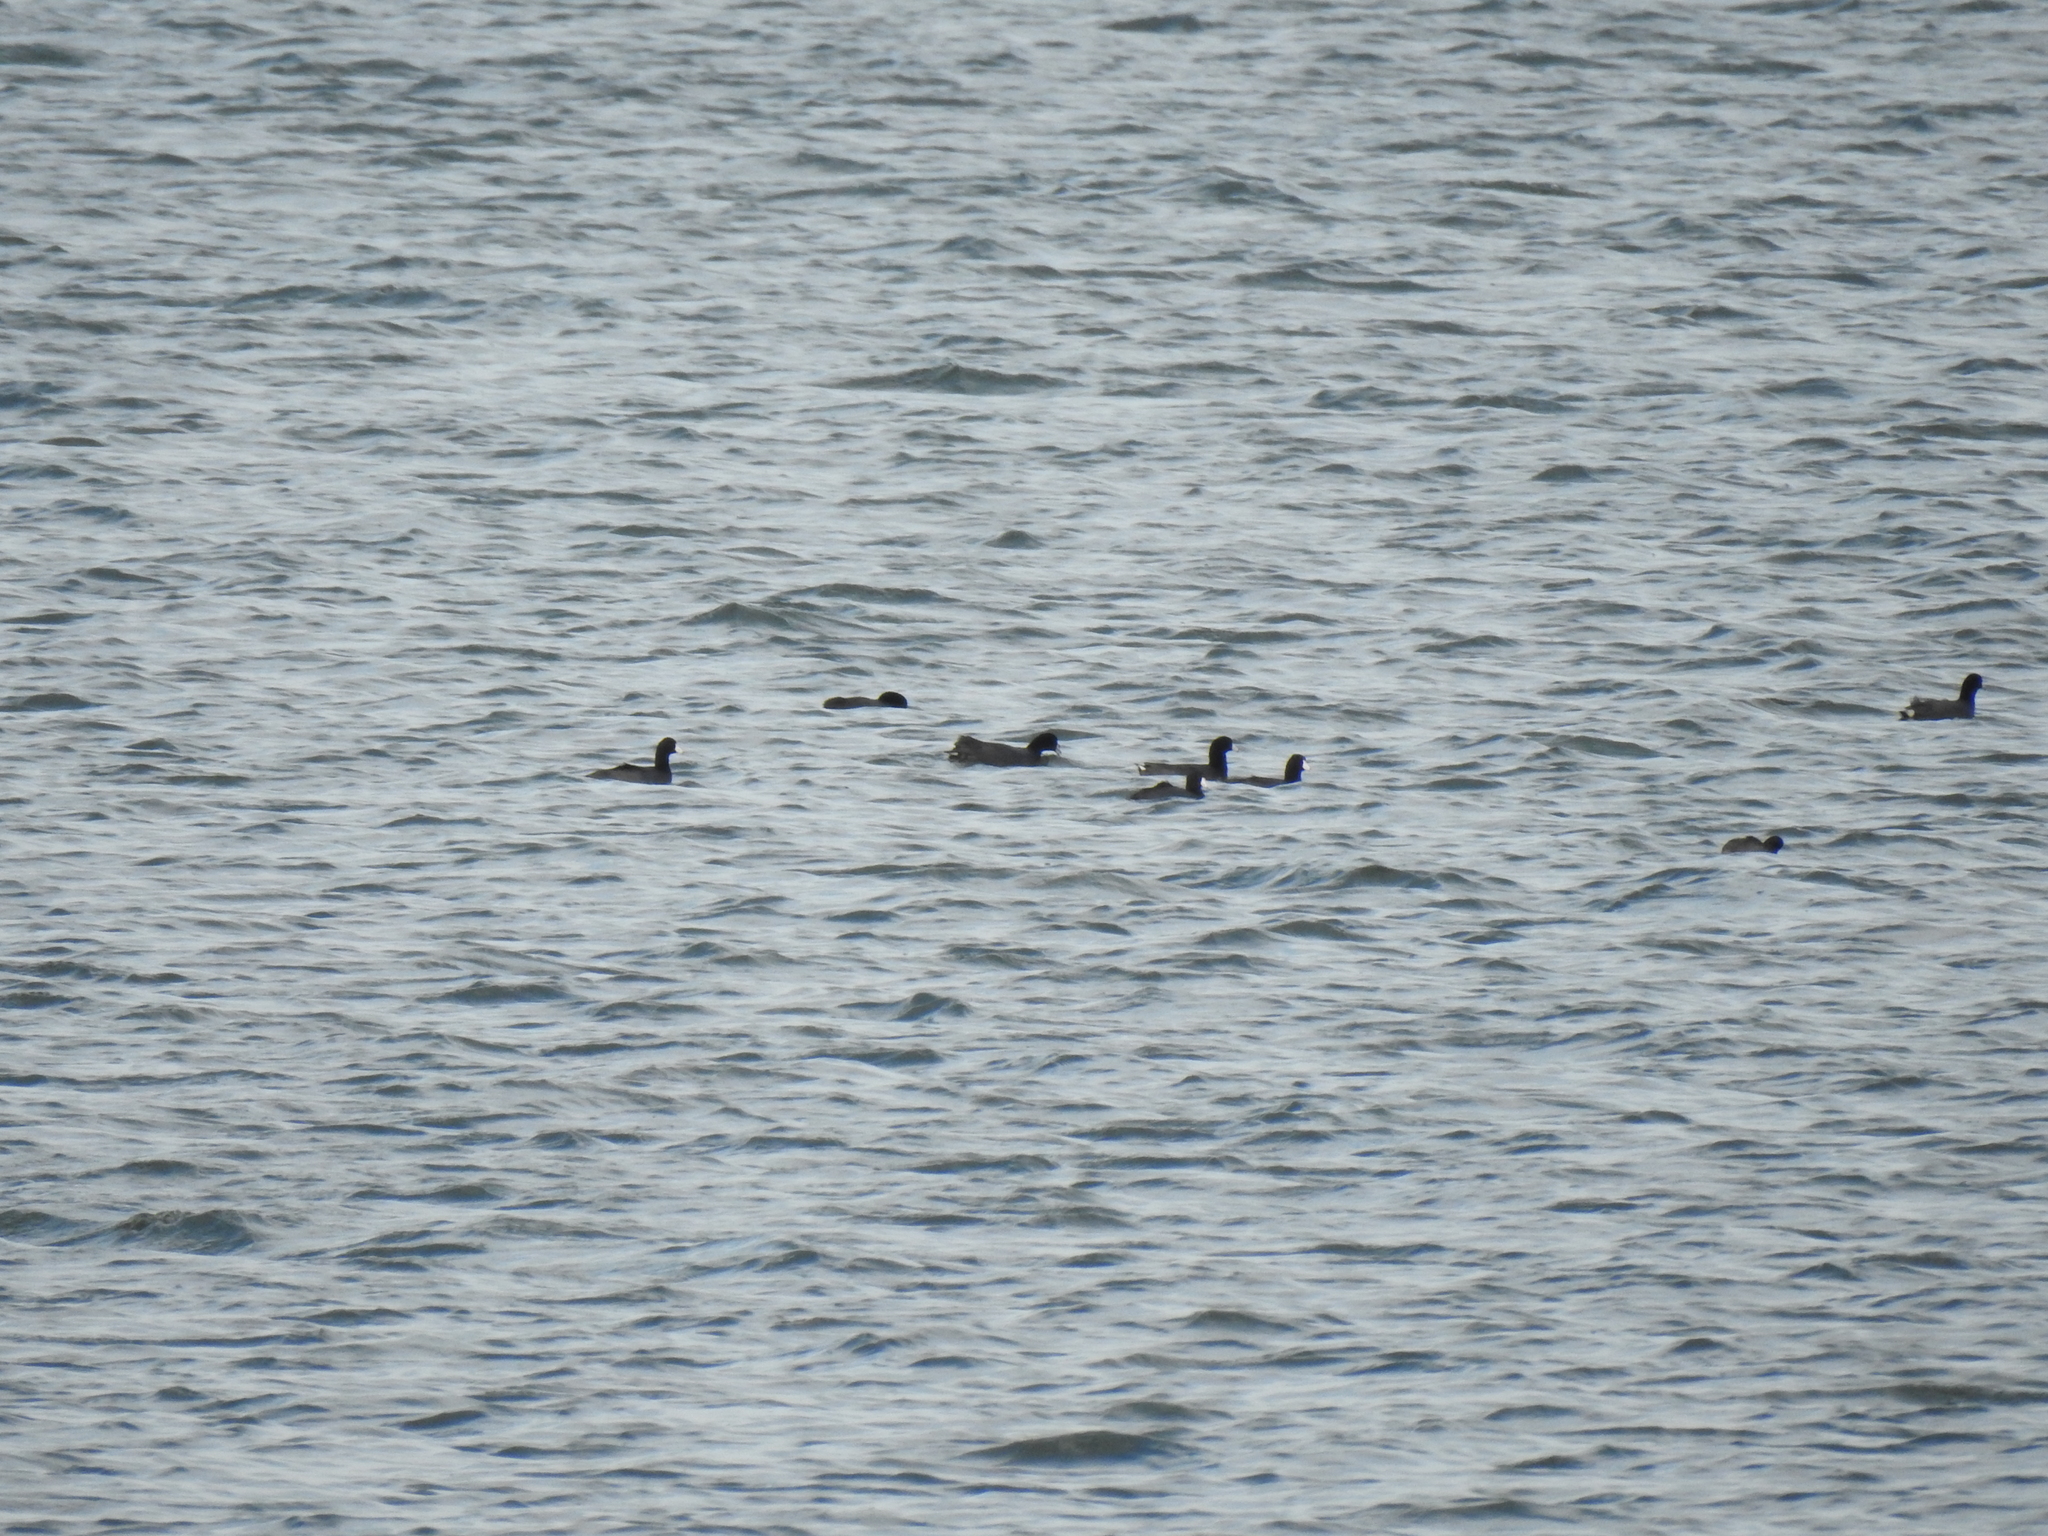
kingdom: Animalia
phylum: Chordata
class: Aves
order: Gruiformes
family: Rallidae
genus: Fulica
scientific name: Fulica americana
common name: American coot
